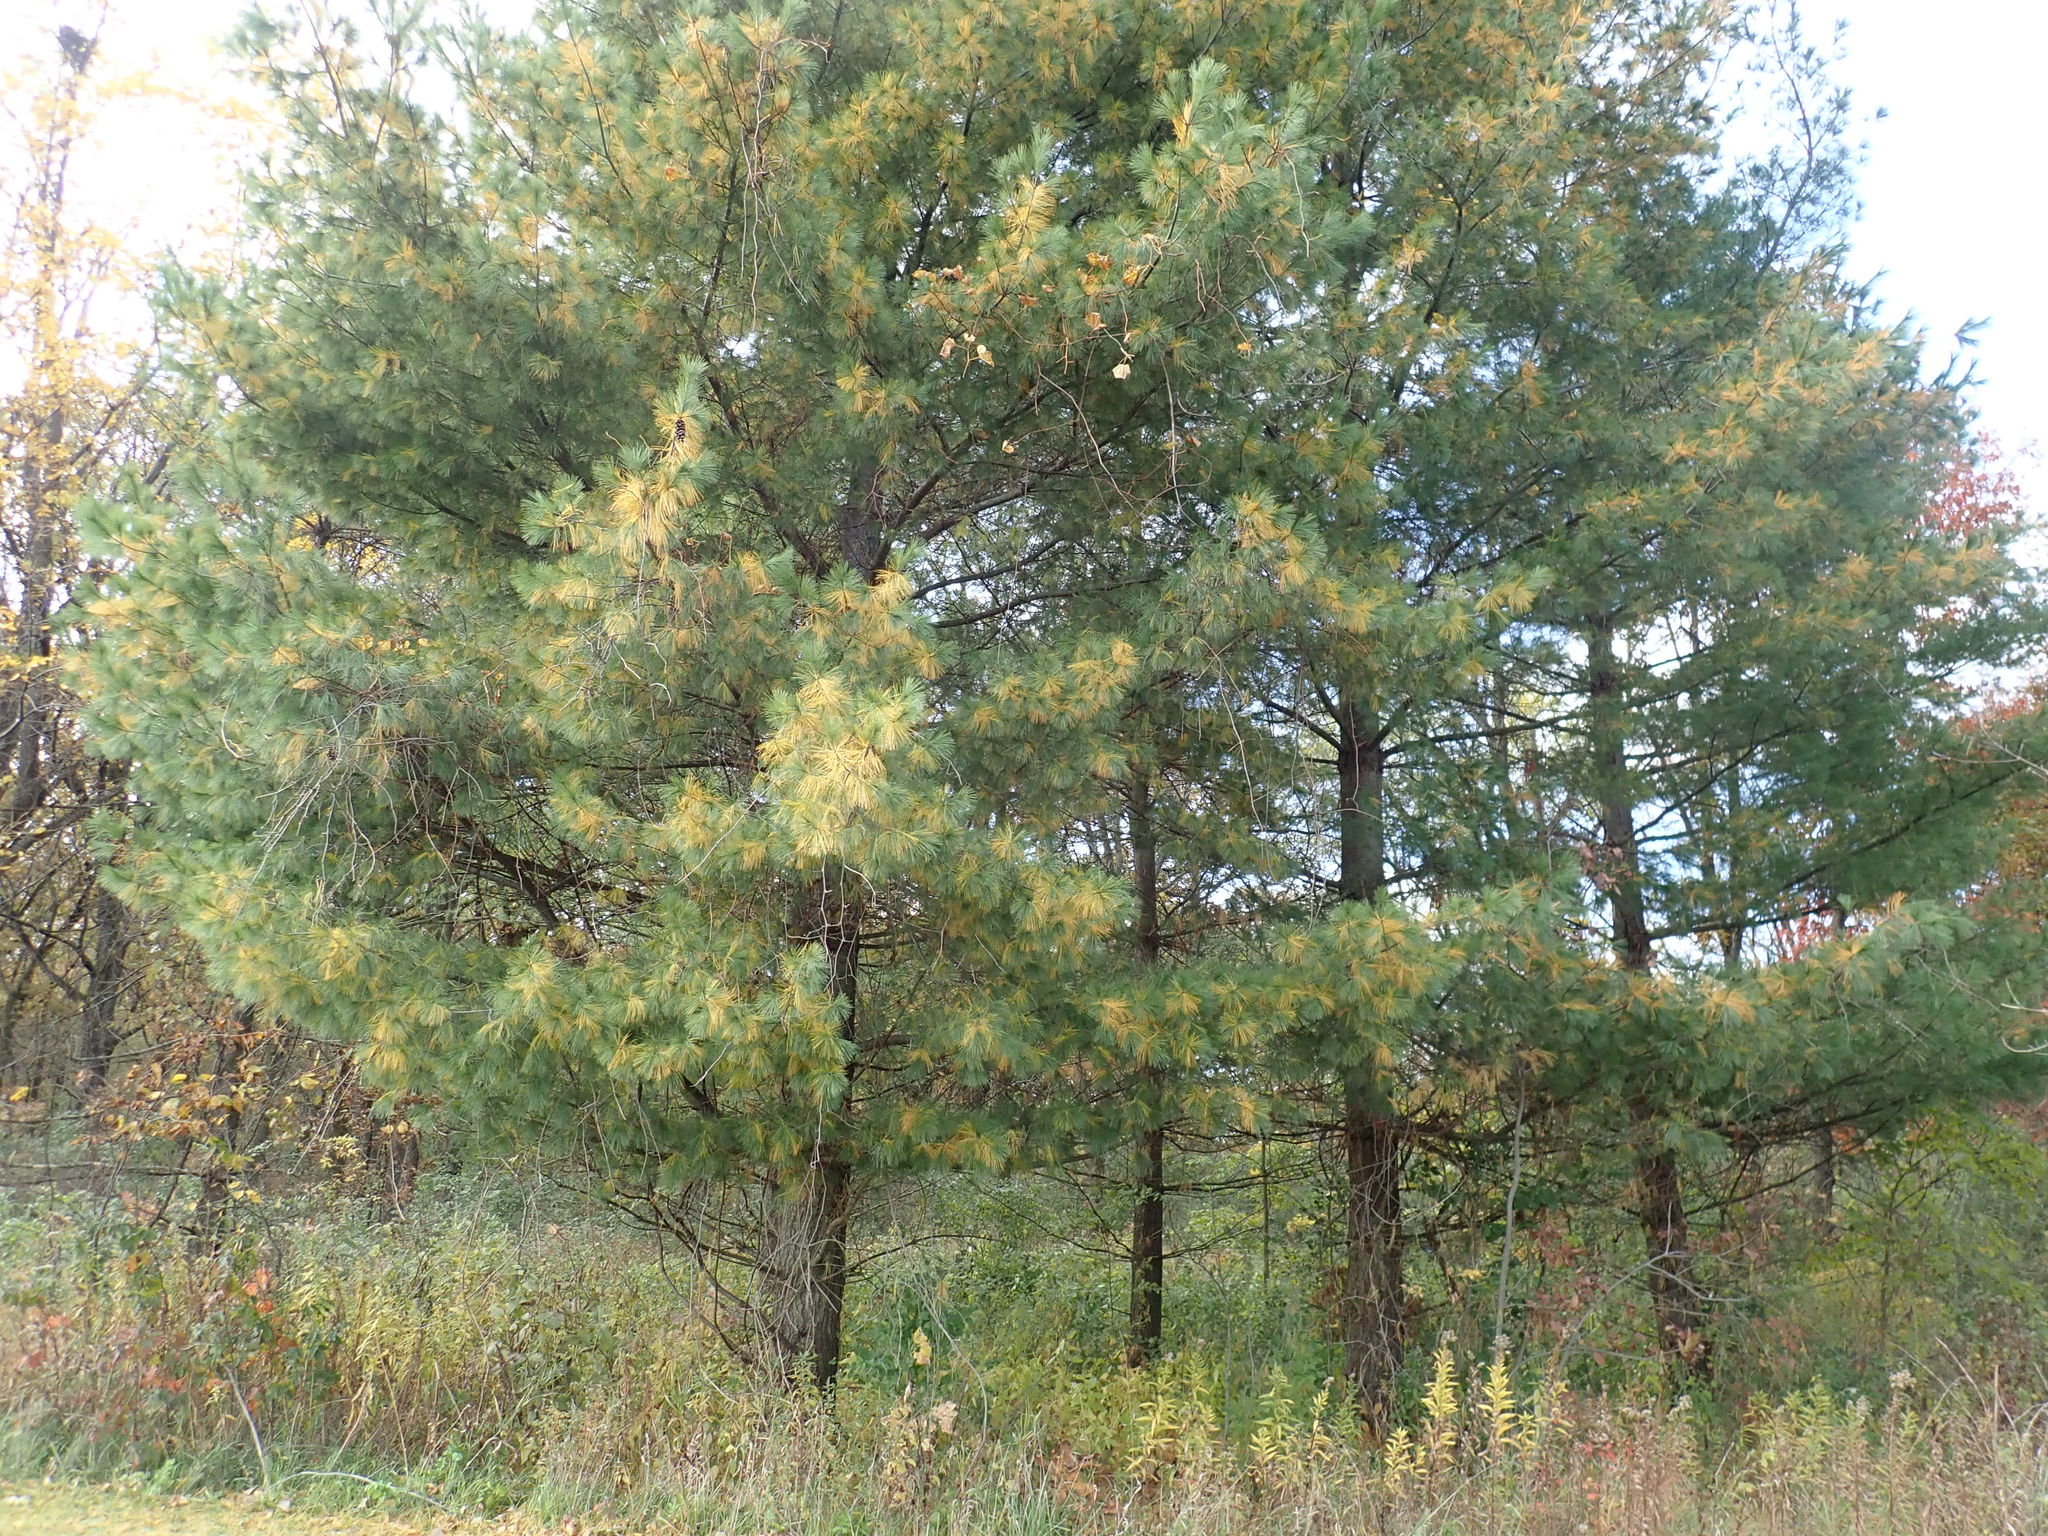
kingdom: Plantae
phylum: Tracheophyta
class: Pinopsida
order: Pinales
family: Pinaceae
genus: Pinus
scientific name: Pinus strobus
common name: Weymouth pine
